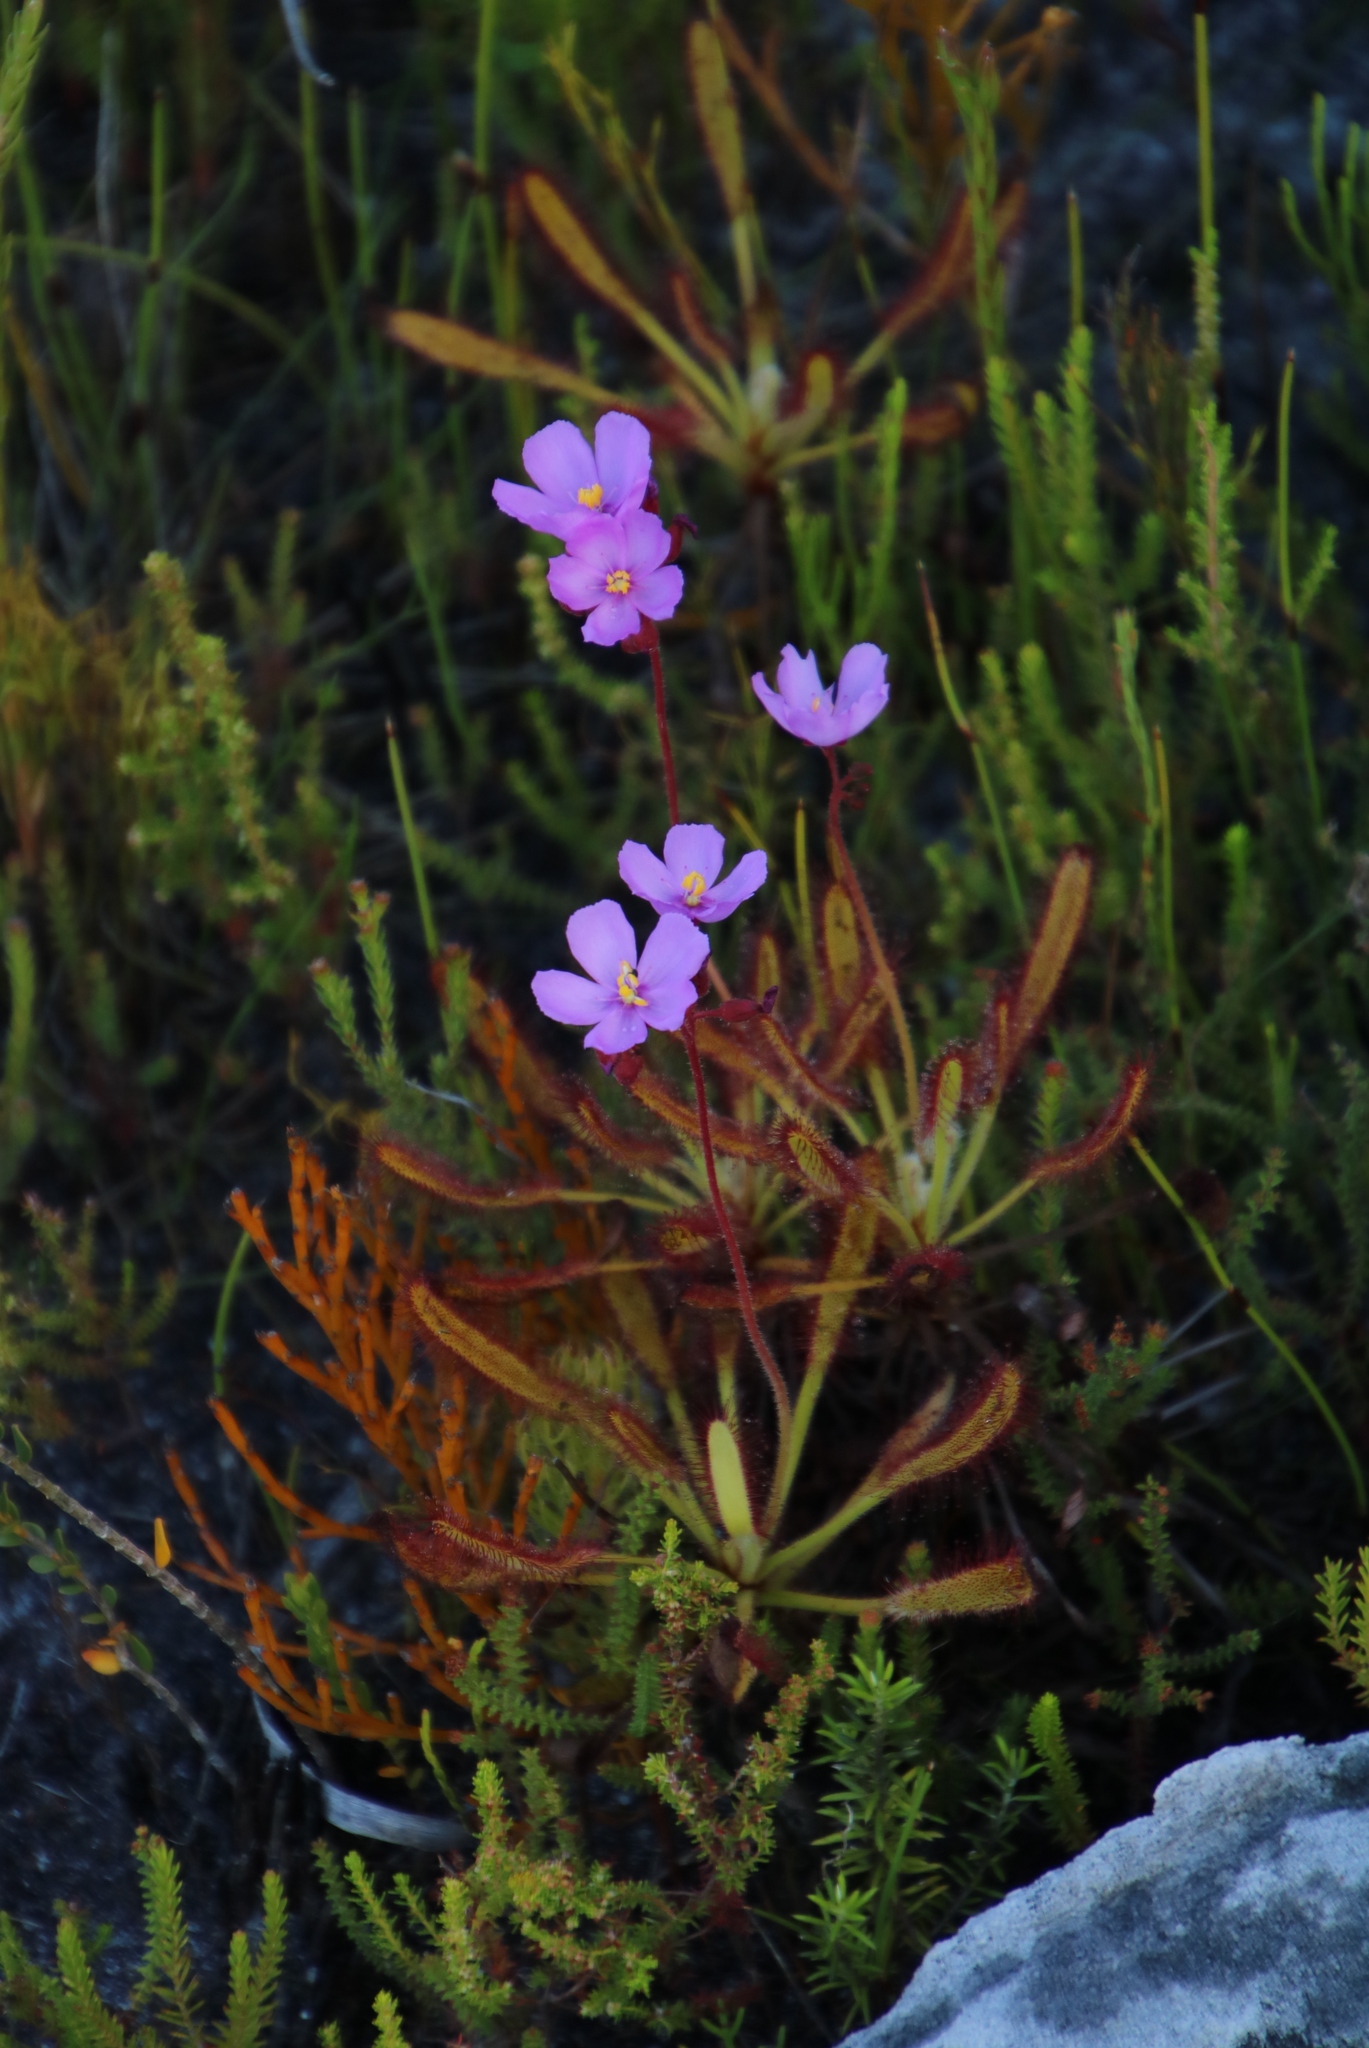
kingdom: Plantae
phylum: Tracheophyta
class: Magnoliopsida
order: Caryophyllales
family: Droseraceae
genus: Drosera
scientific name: Drosera ramentacea
